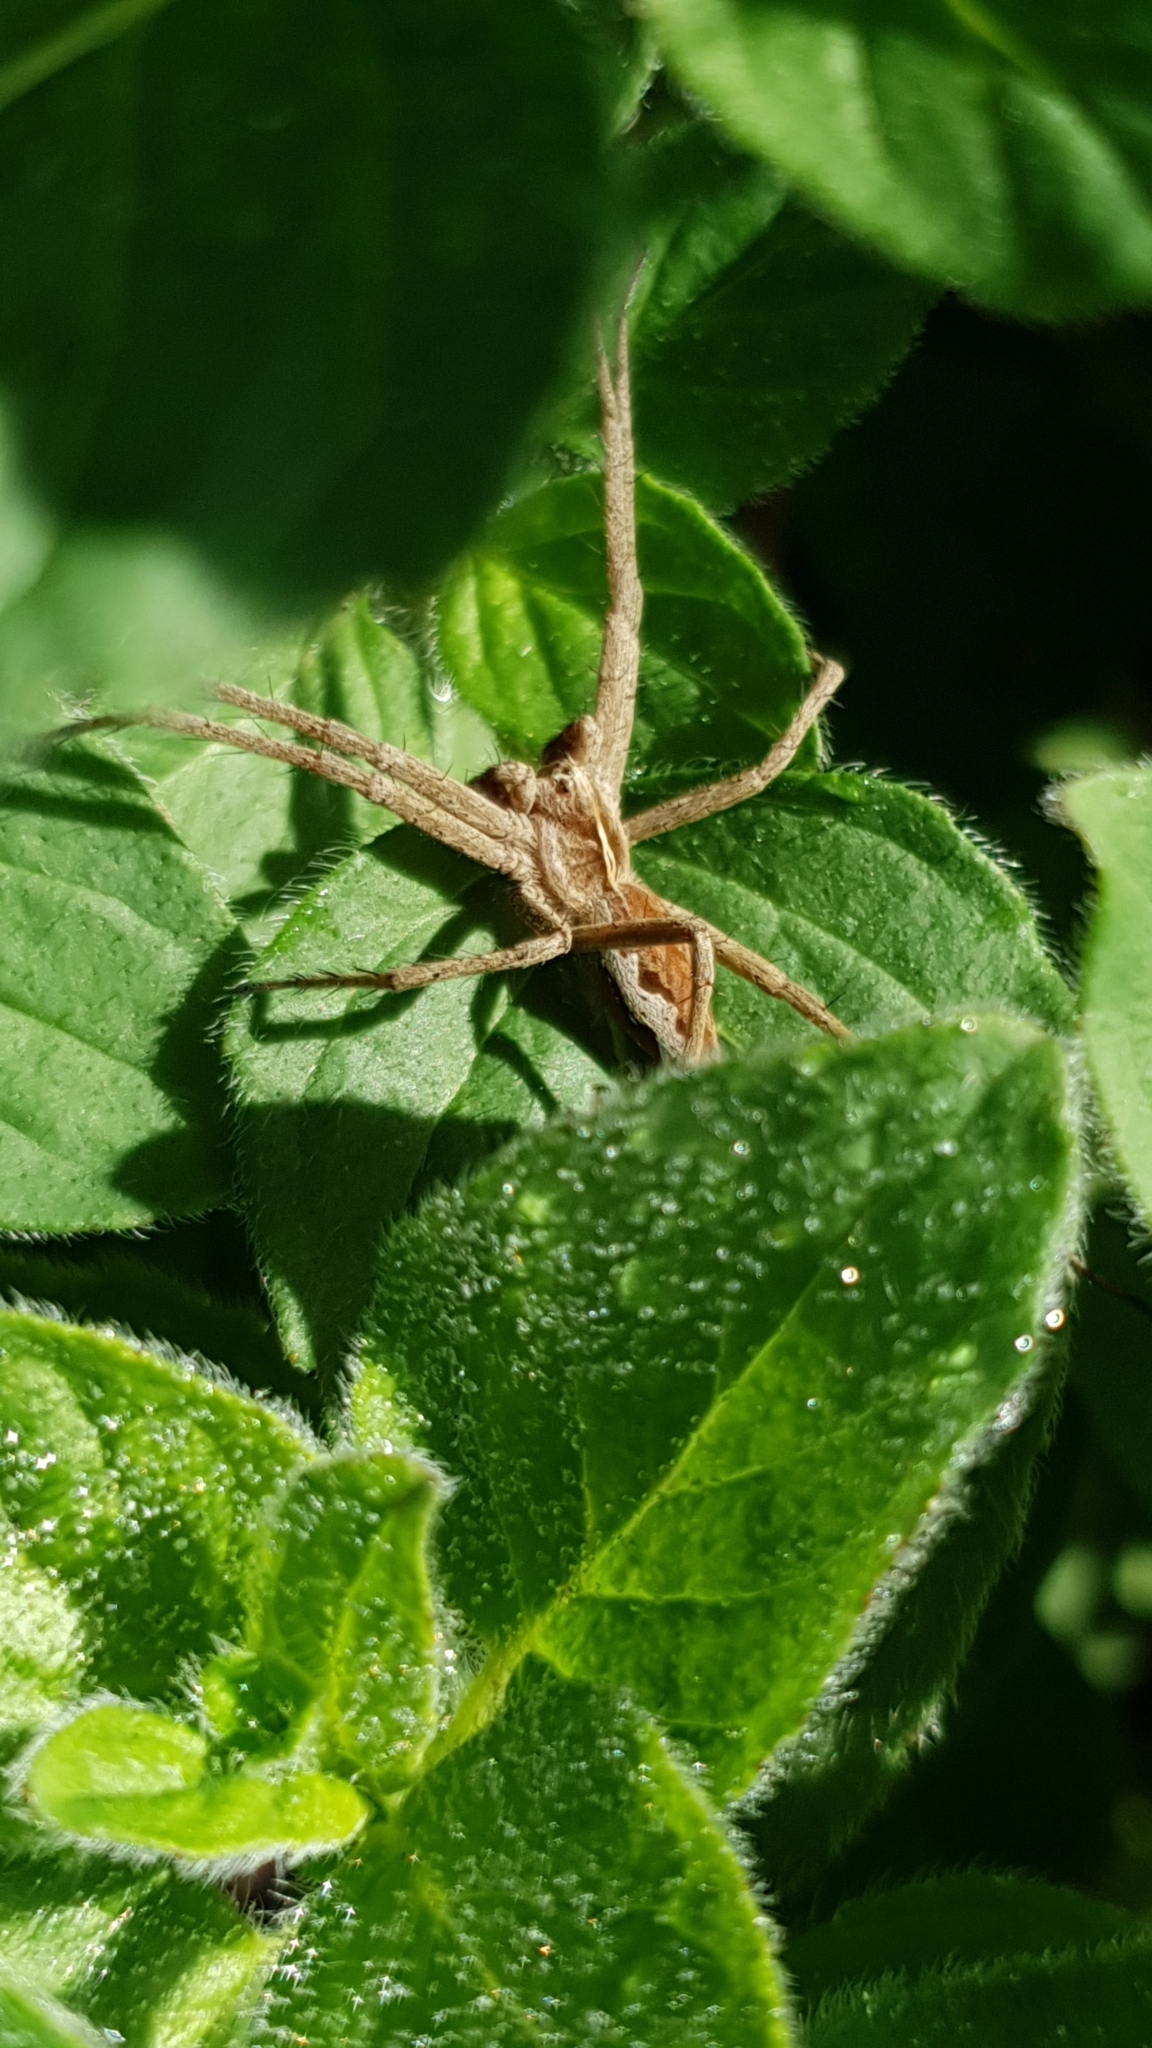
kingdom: Animalia
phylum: Arthropoda
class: Arachnida
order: Araneae
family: Pisauridae
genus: Pisaura
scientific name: Pisaura mirabilis
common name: Tent spider
